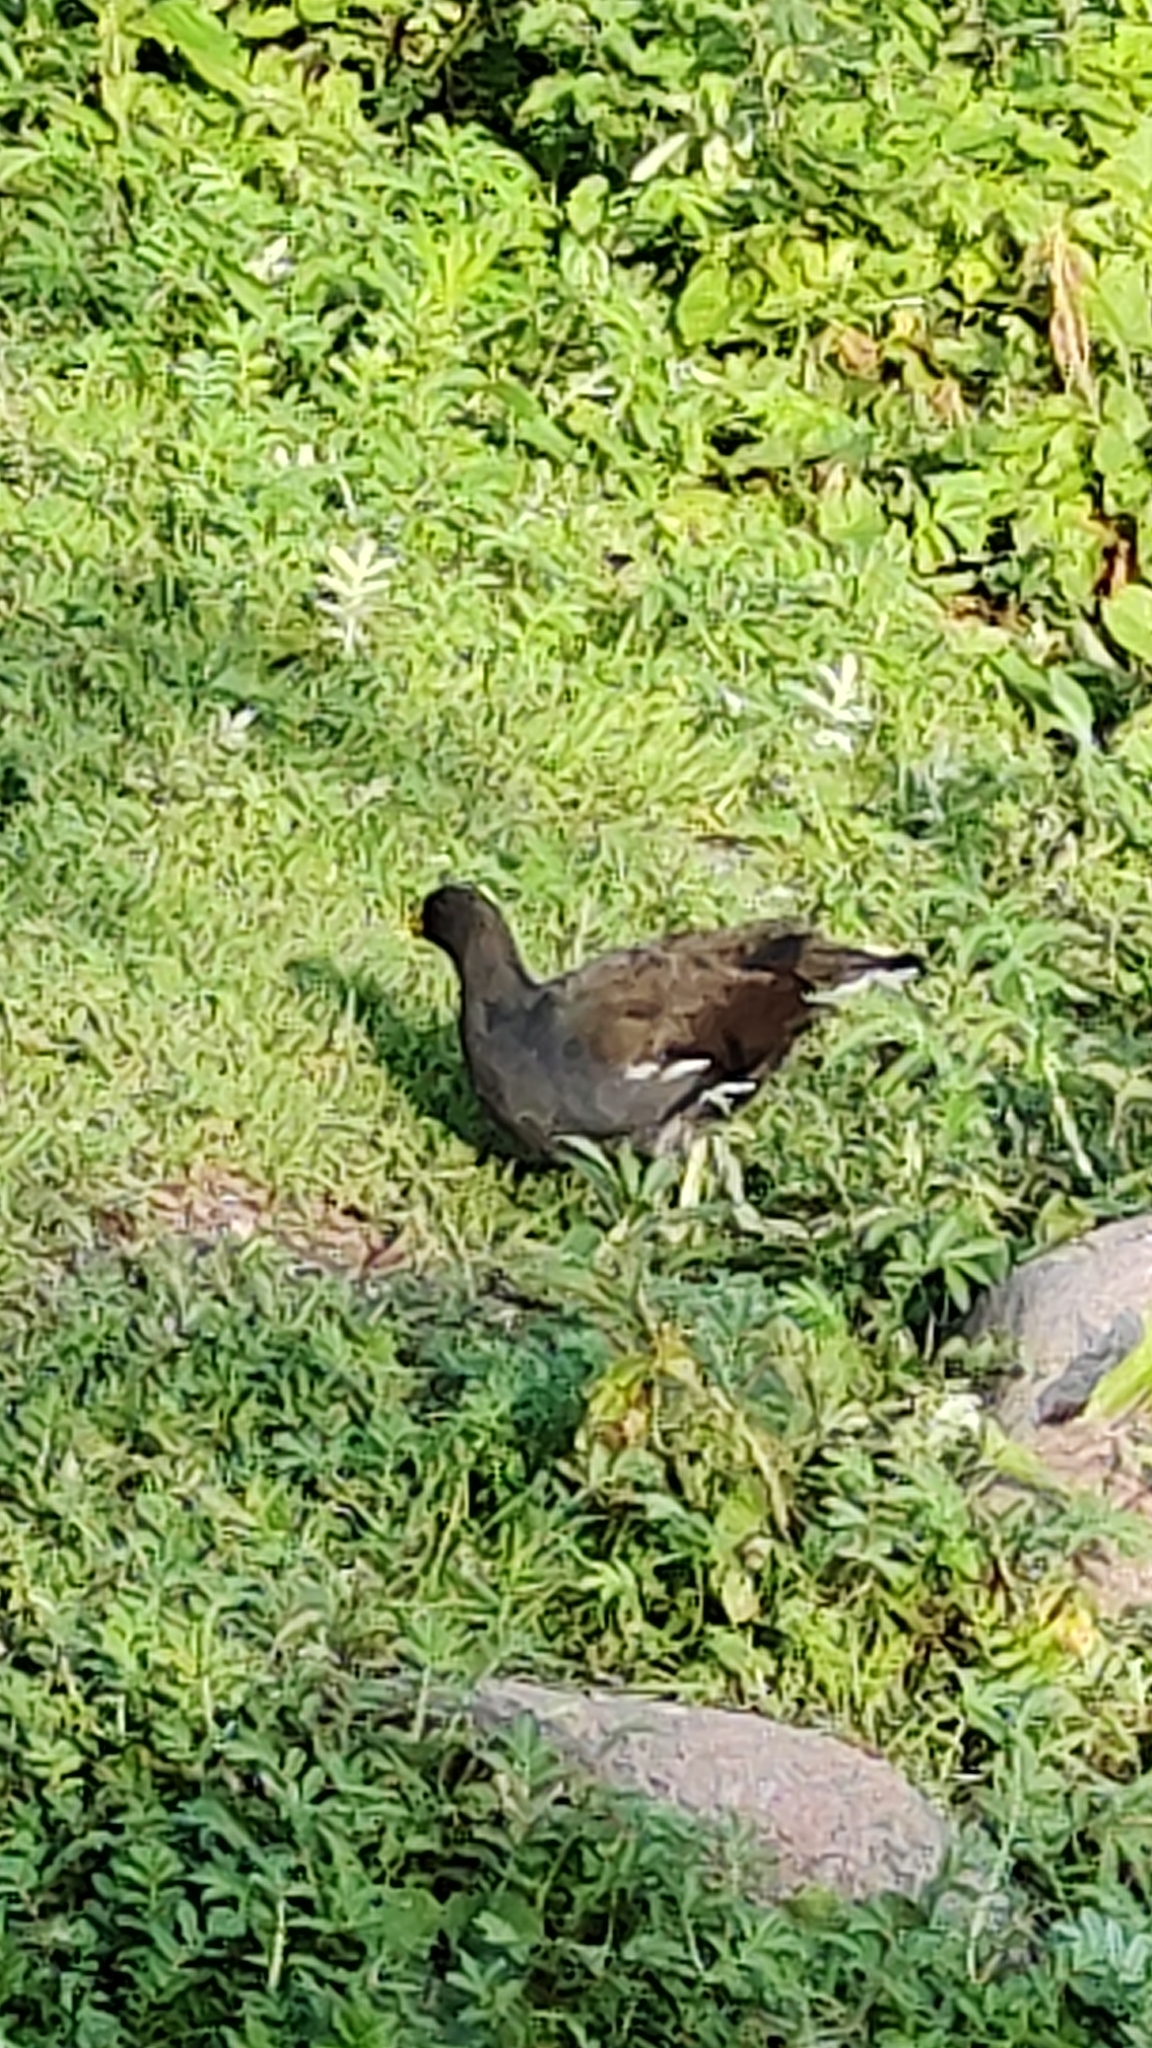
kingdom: Animalia
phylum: Chordata
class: Aves
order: Gruiformes
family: Rallidae
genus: Gallinula
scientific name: Gallinula chloropus
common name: Common moorhen
